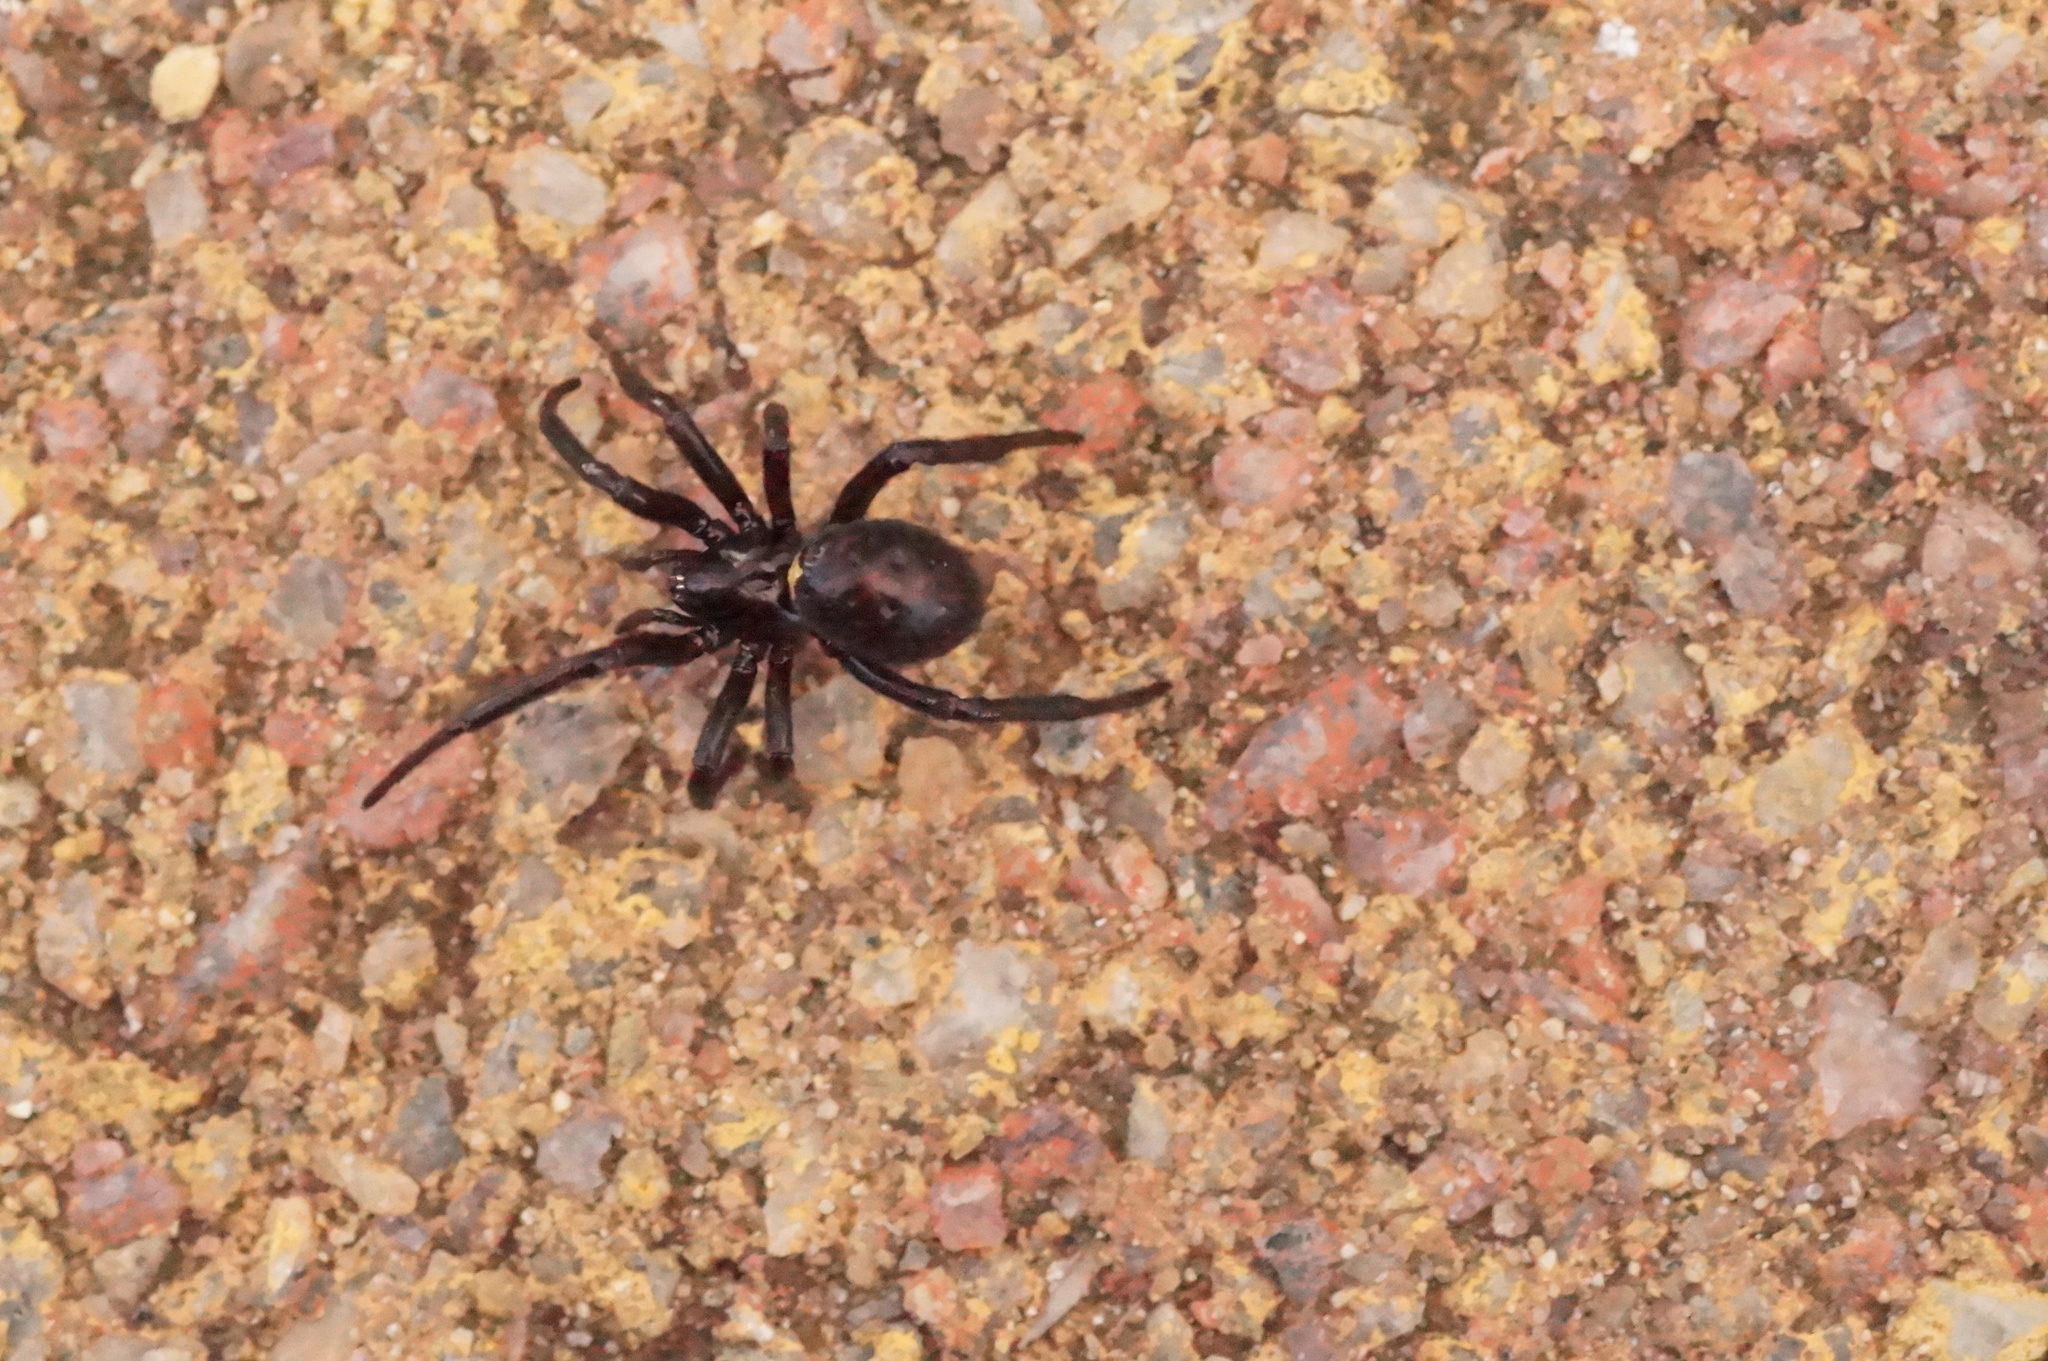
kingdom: Animalia
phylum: Arthropoda
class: Arachnida
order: Araneae
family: Theridiidae
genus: Steatoda
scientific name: Steatoda paykulliana
